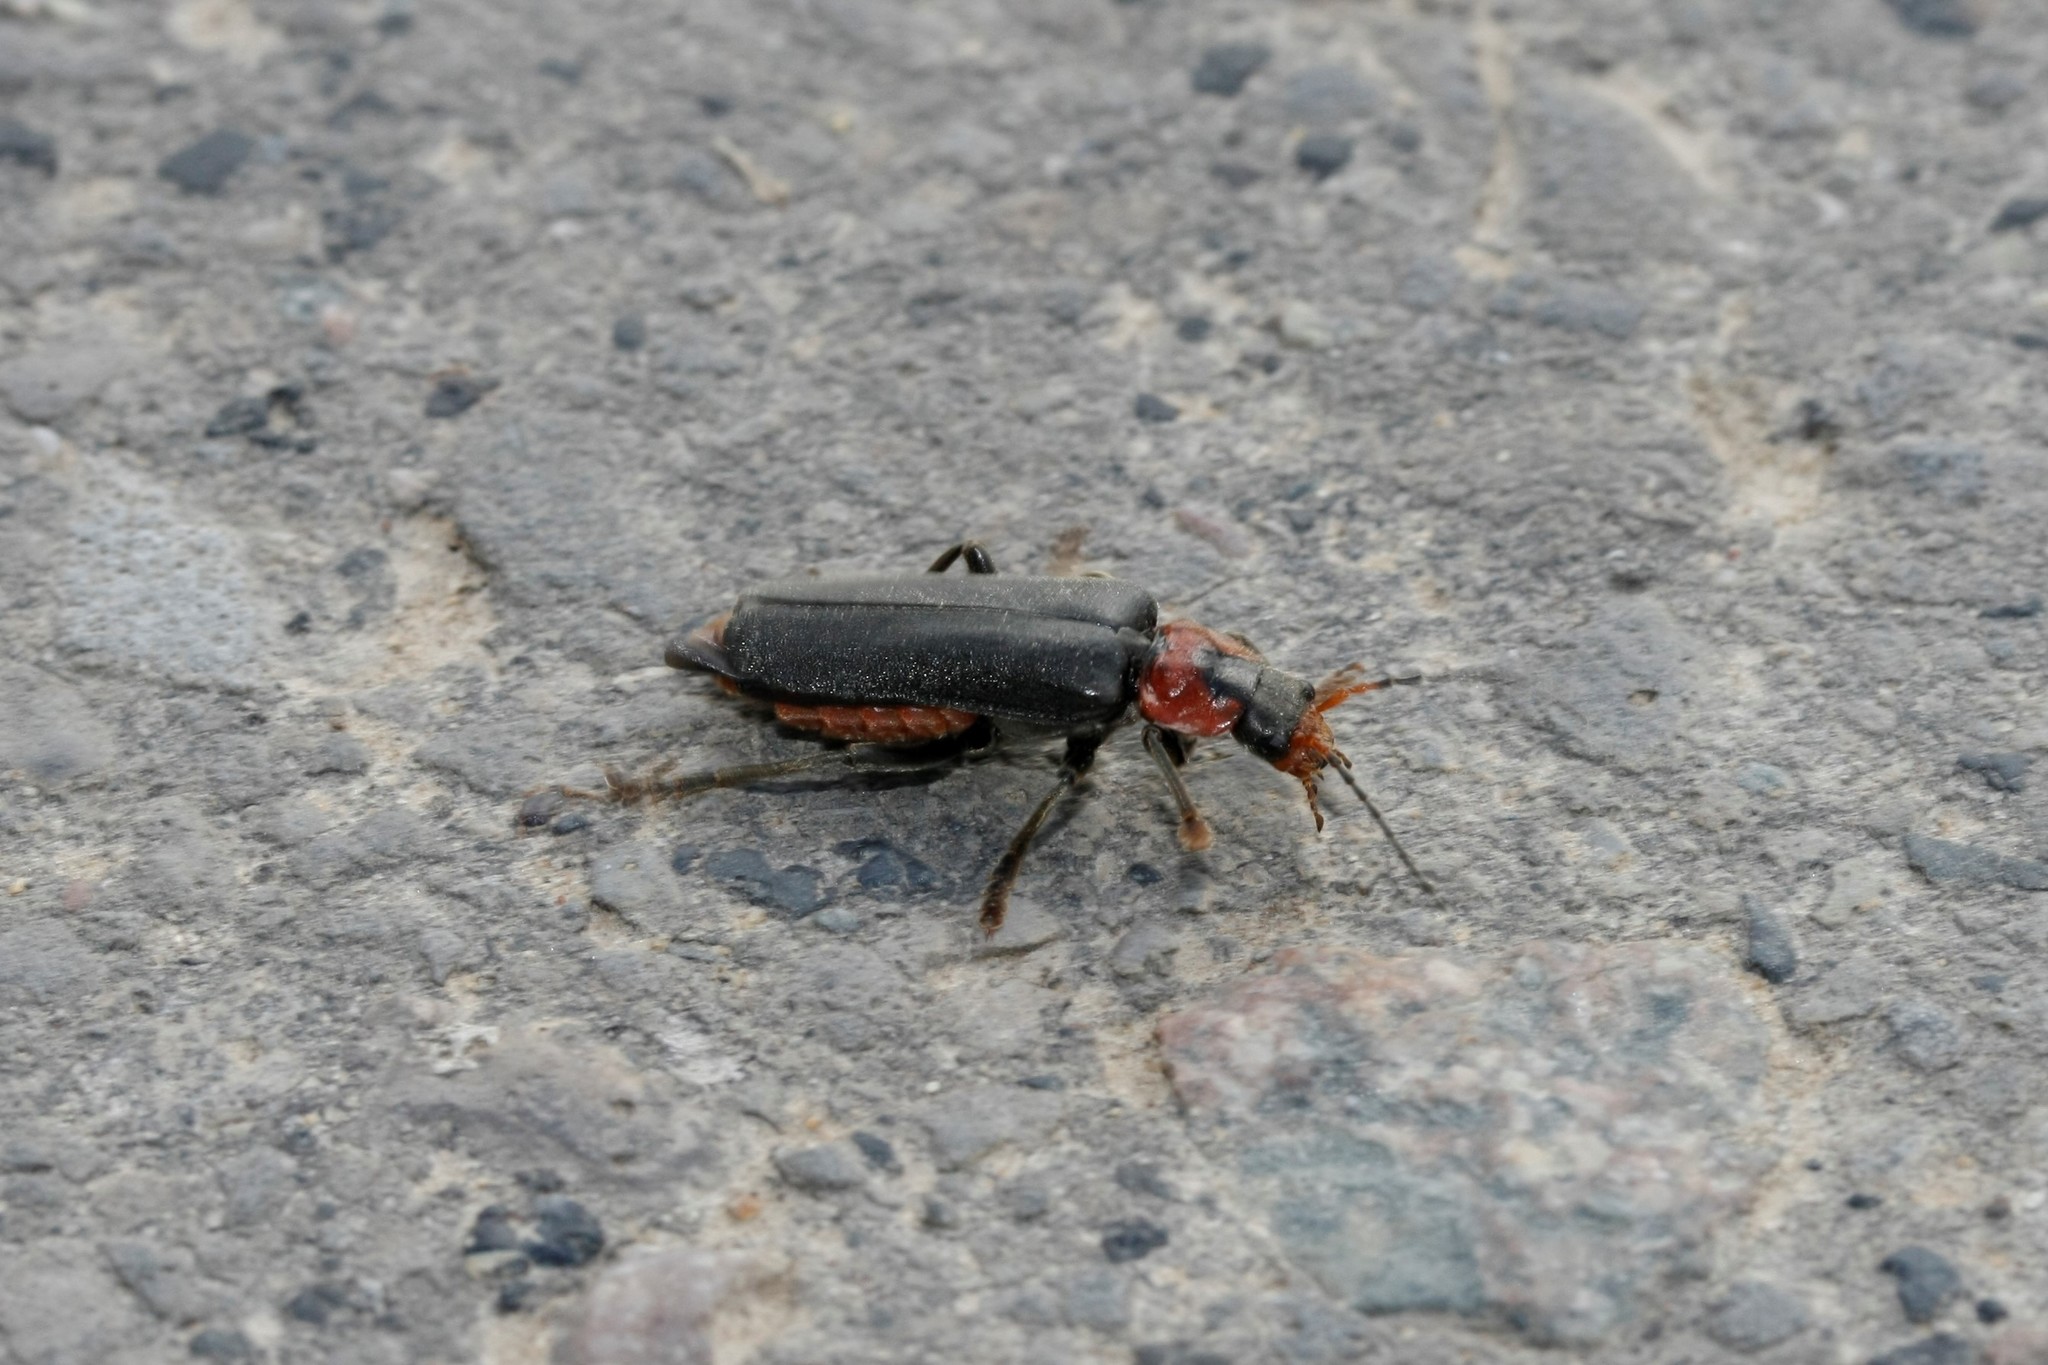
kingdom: Animalia
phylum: Arthropoda
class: Insecta
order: Coleoptera
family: Cantharidae
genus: Cantharis
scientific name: Cantharis fusca
